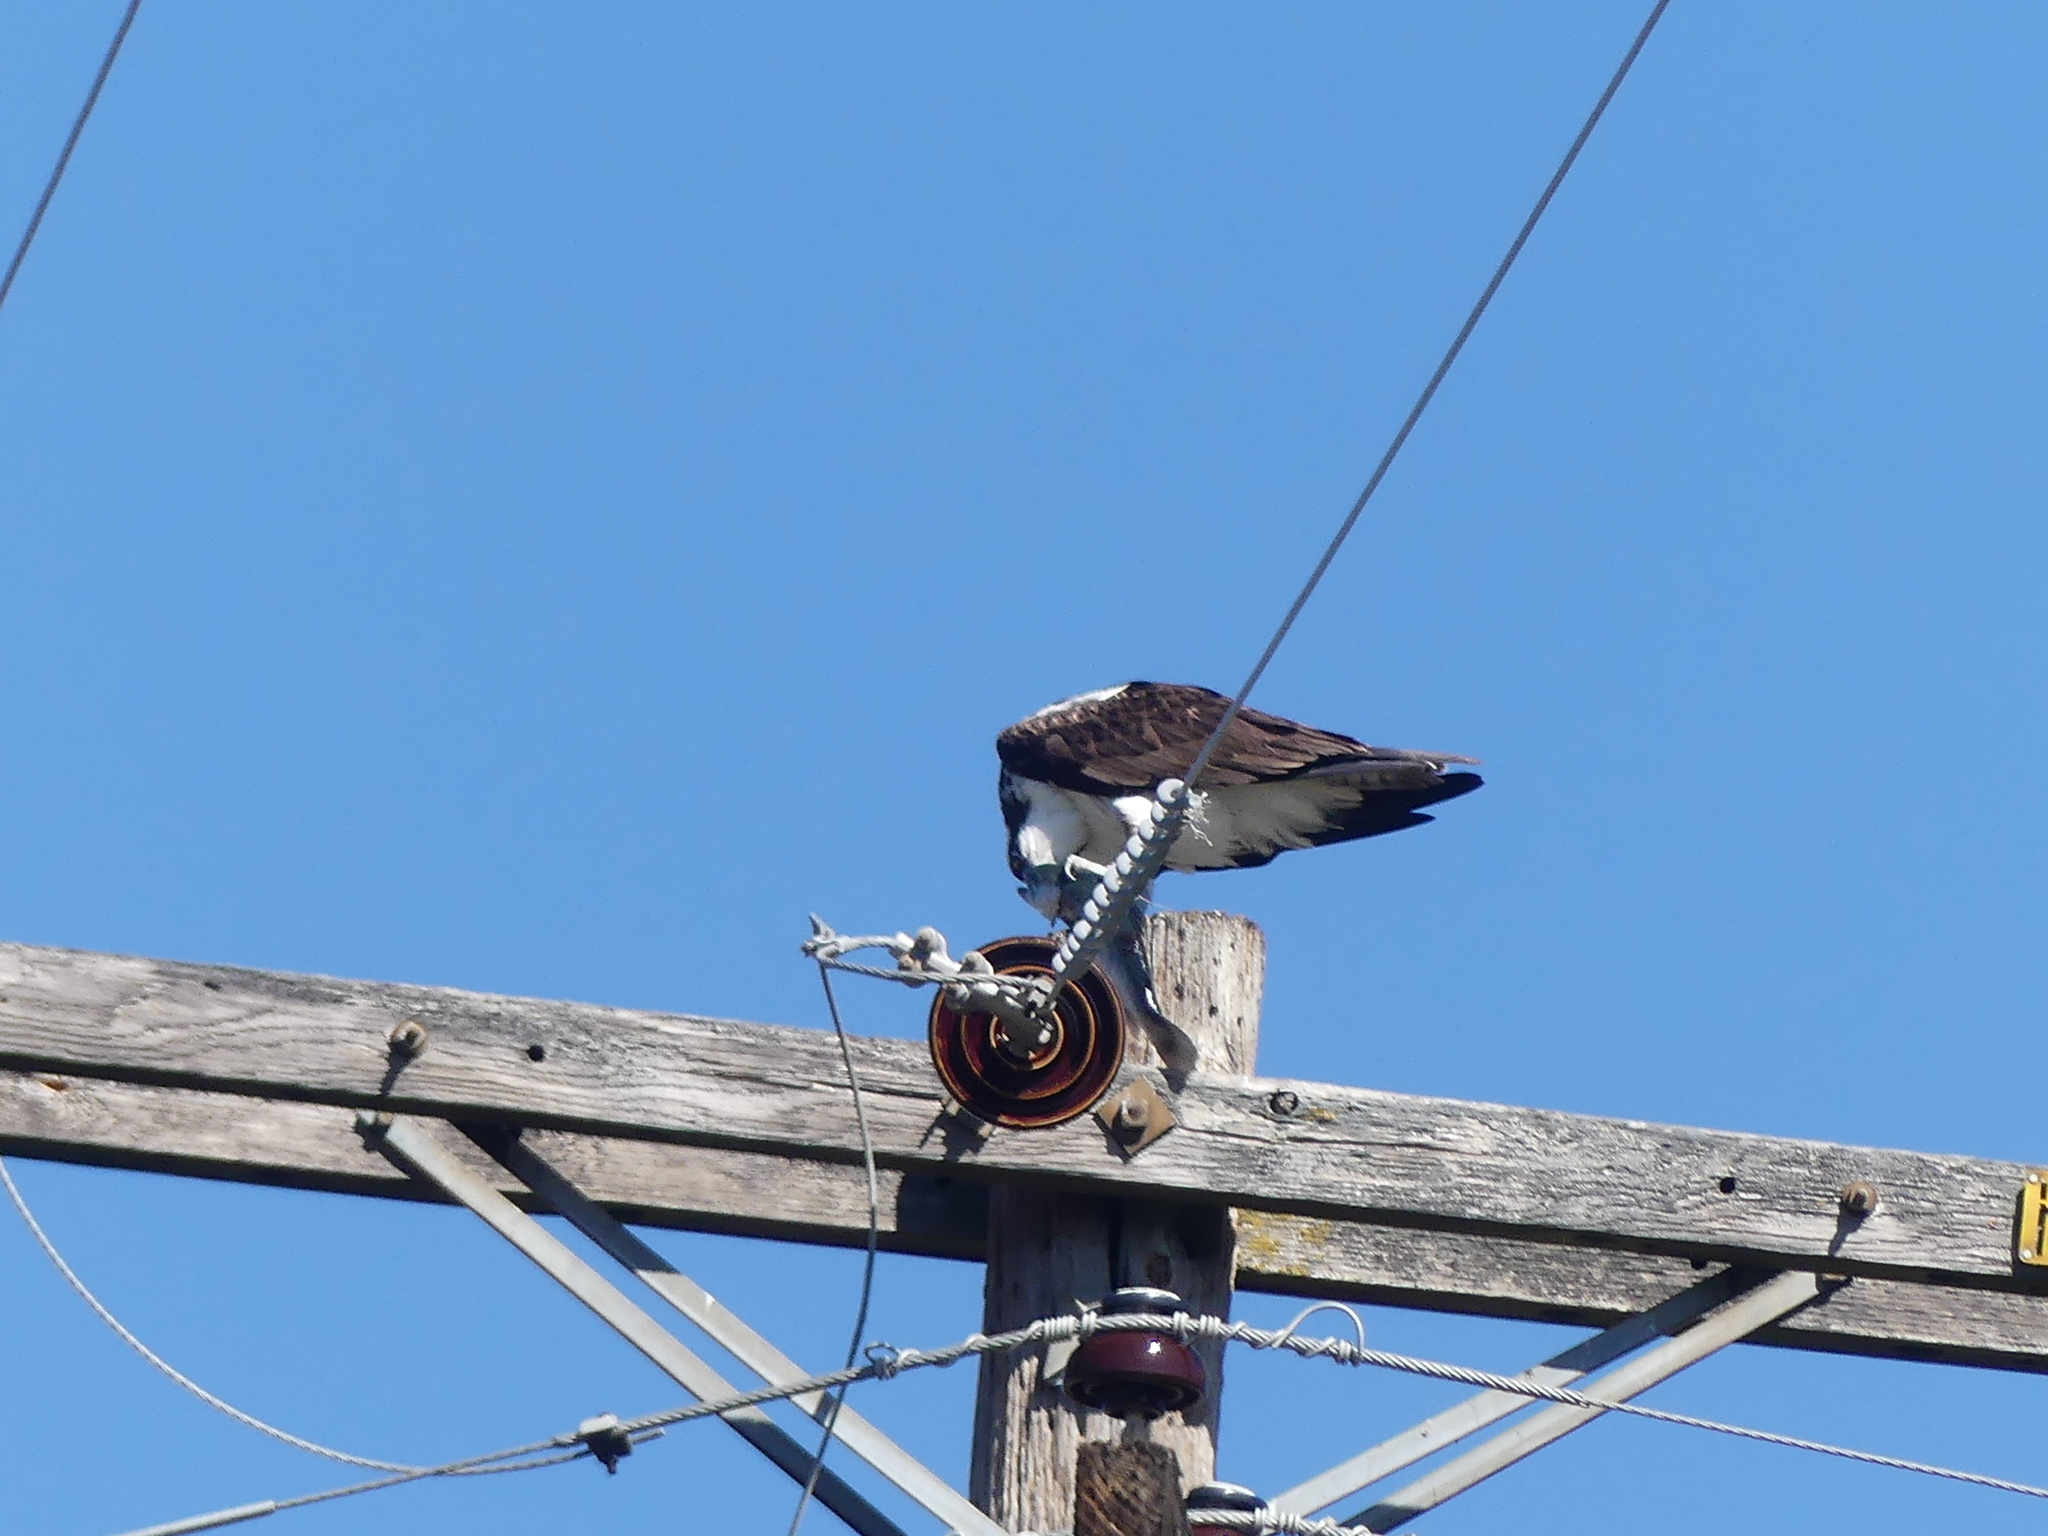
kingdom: Animalia
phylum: Chordata
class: Aves
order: Accipitriformes
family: Pandionidae
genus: Pandion
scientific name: Pandion haliaetus
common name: Osprey
